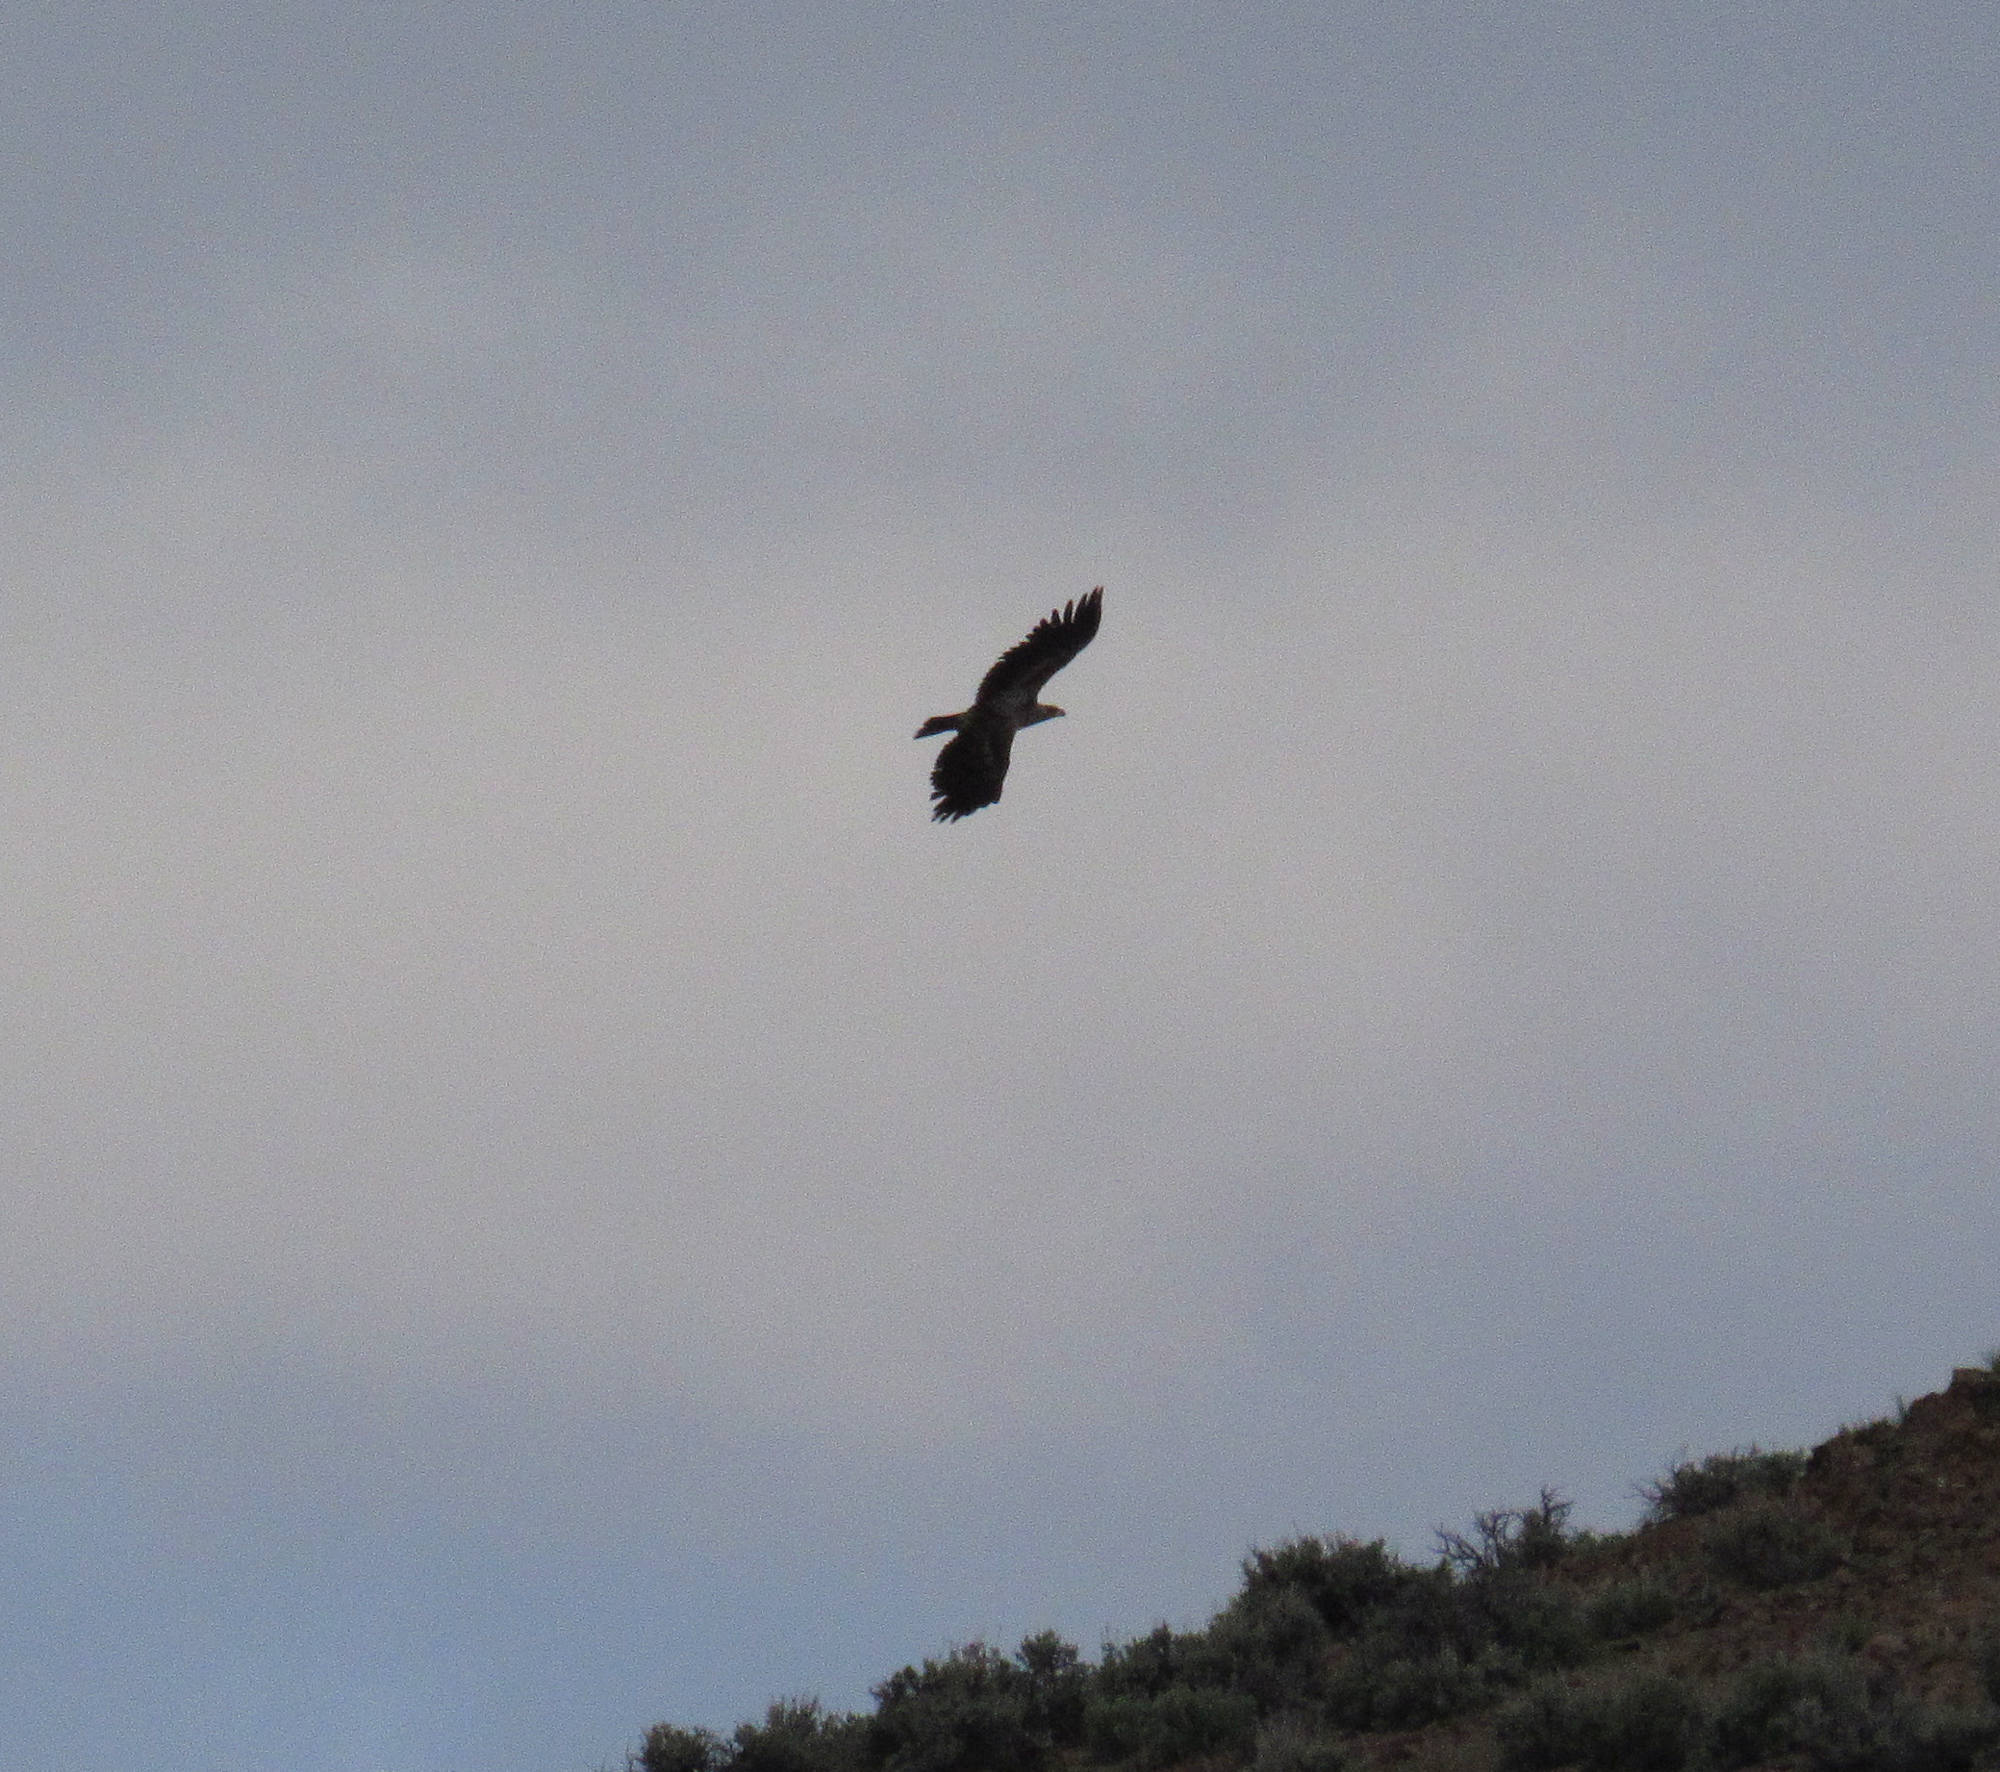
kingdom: Animalia
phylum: Chordata
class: Aves
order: Accipitriformes
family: Accipitridae
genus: Haliaeetus
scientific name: Haliaeetus leucocephalus
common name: Bald eagle
